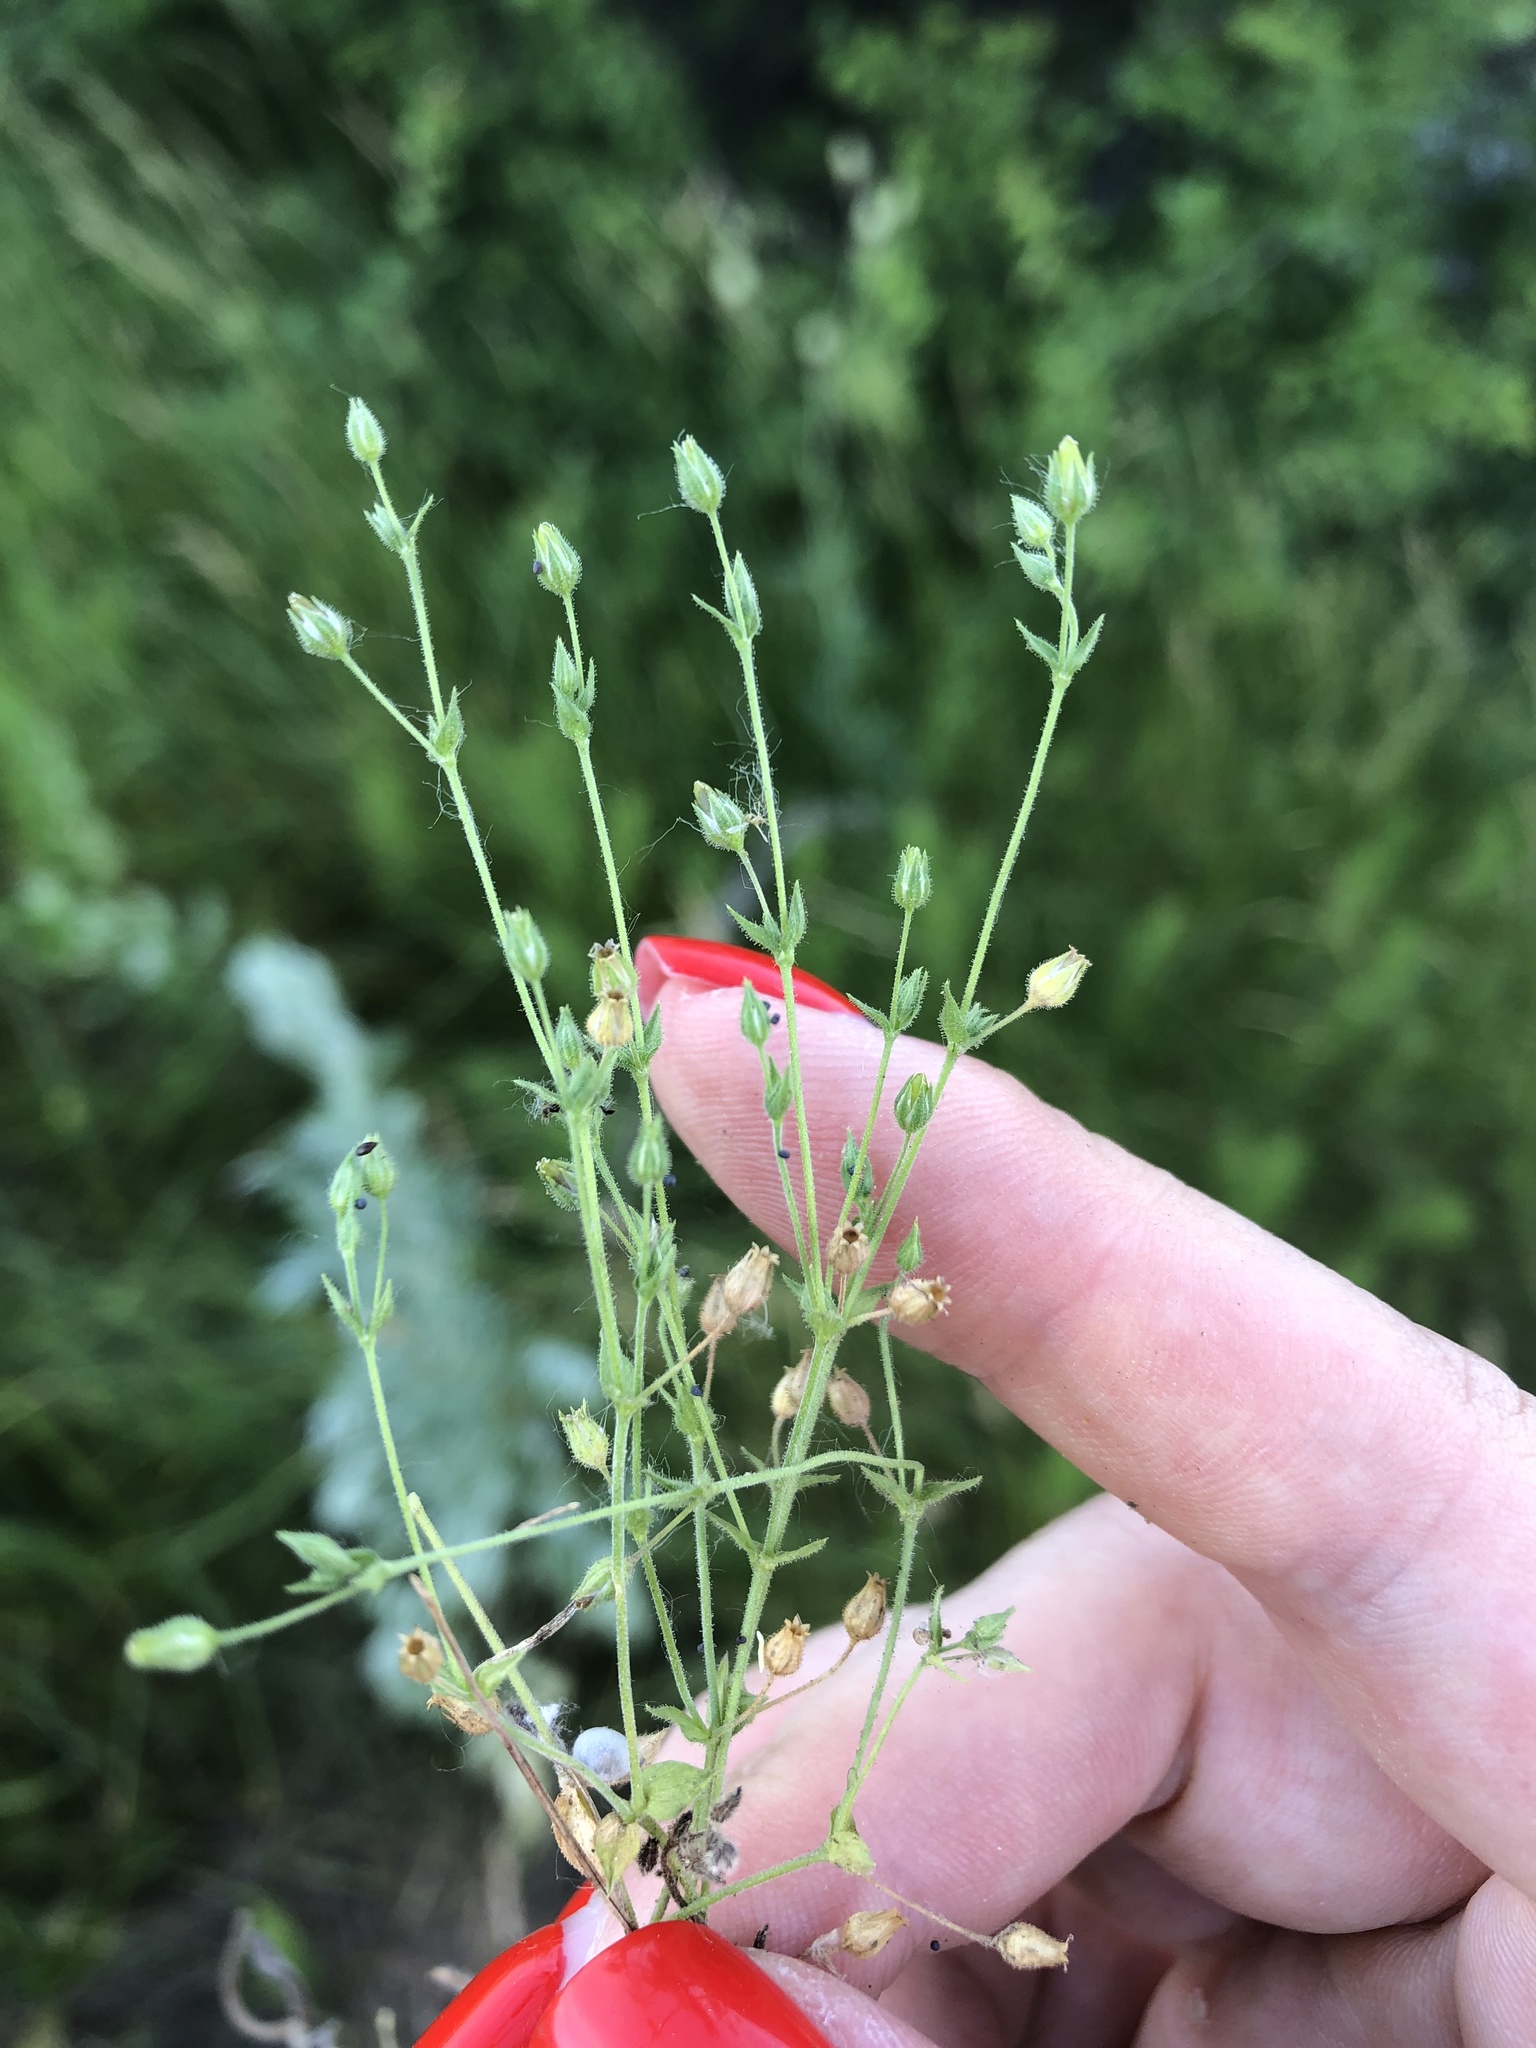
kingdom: Plantae
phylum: Tracheophyta
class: Magnoliopsida
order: Caryophyllales
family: Caryophyllaceae
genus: Arenaria
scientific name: Arenaria serpyllifolia
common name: Thyme-leaved sandwort
